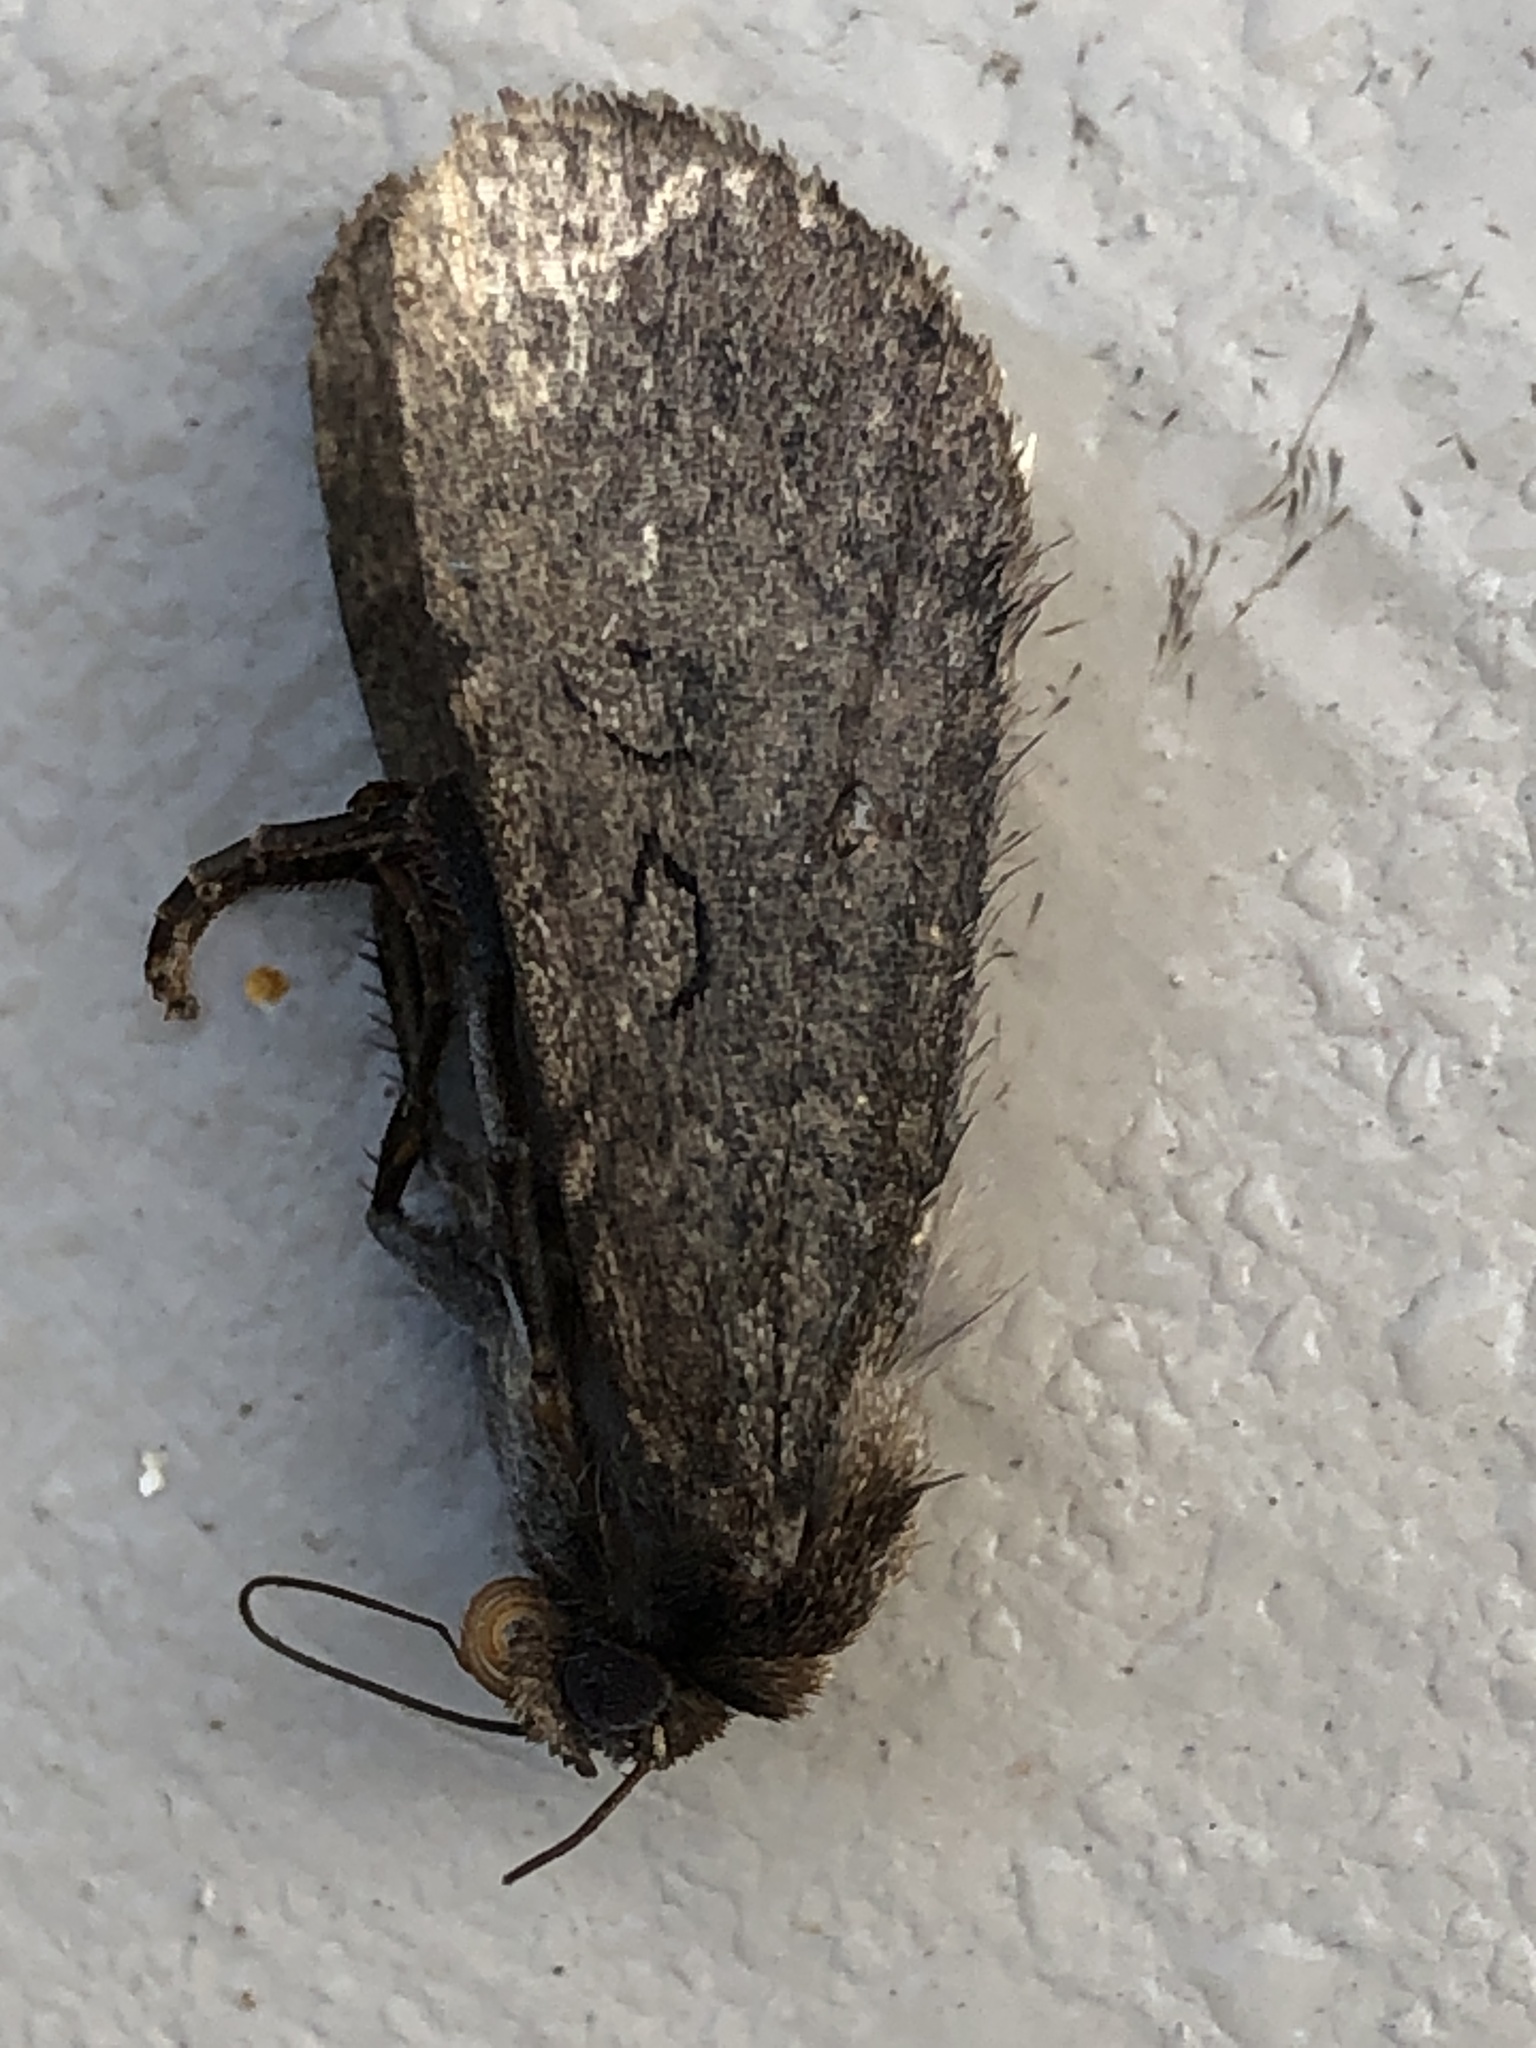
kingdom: Animalia
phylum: Arthropoda
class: Insecta
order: Lepidoptera
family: Noctuidae
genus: Spaelotis
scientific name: Spaelotis clandestina
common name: Clandestine dart
